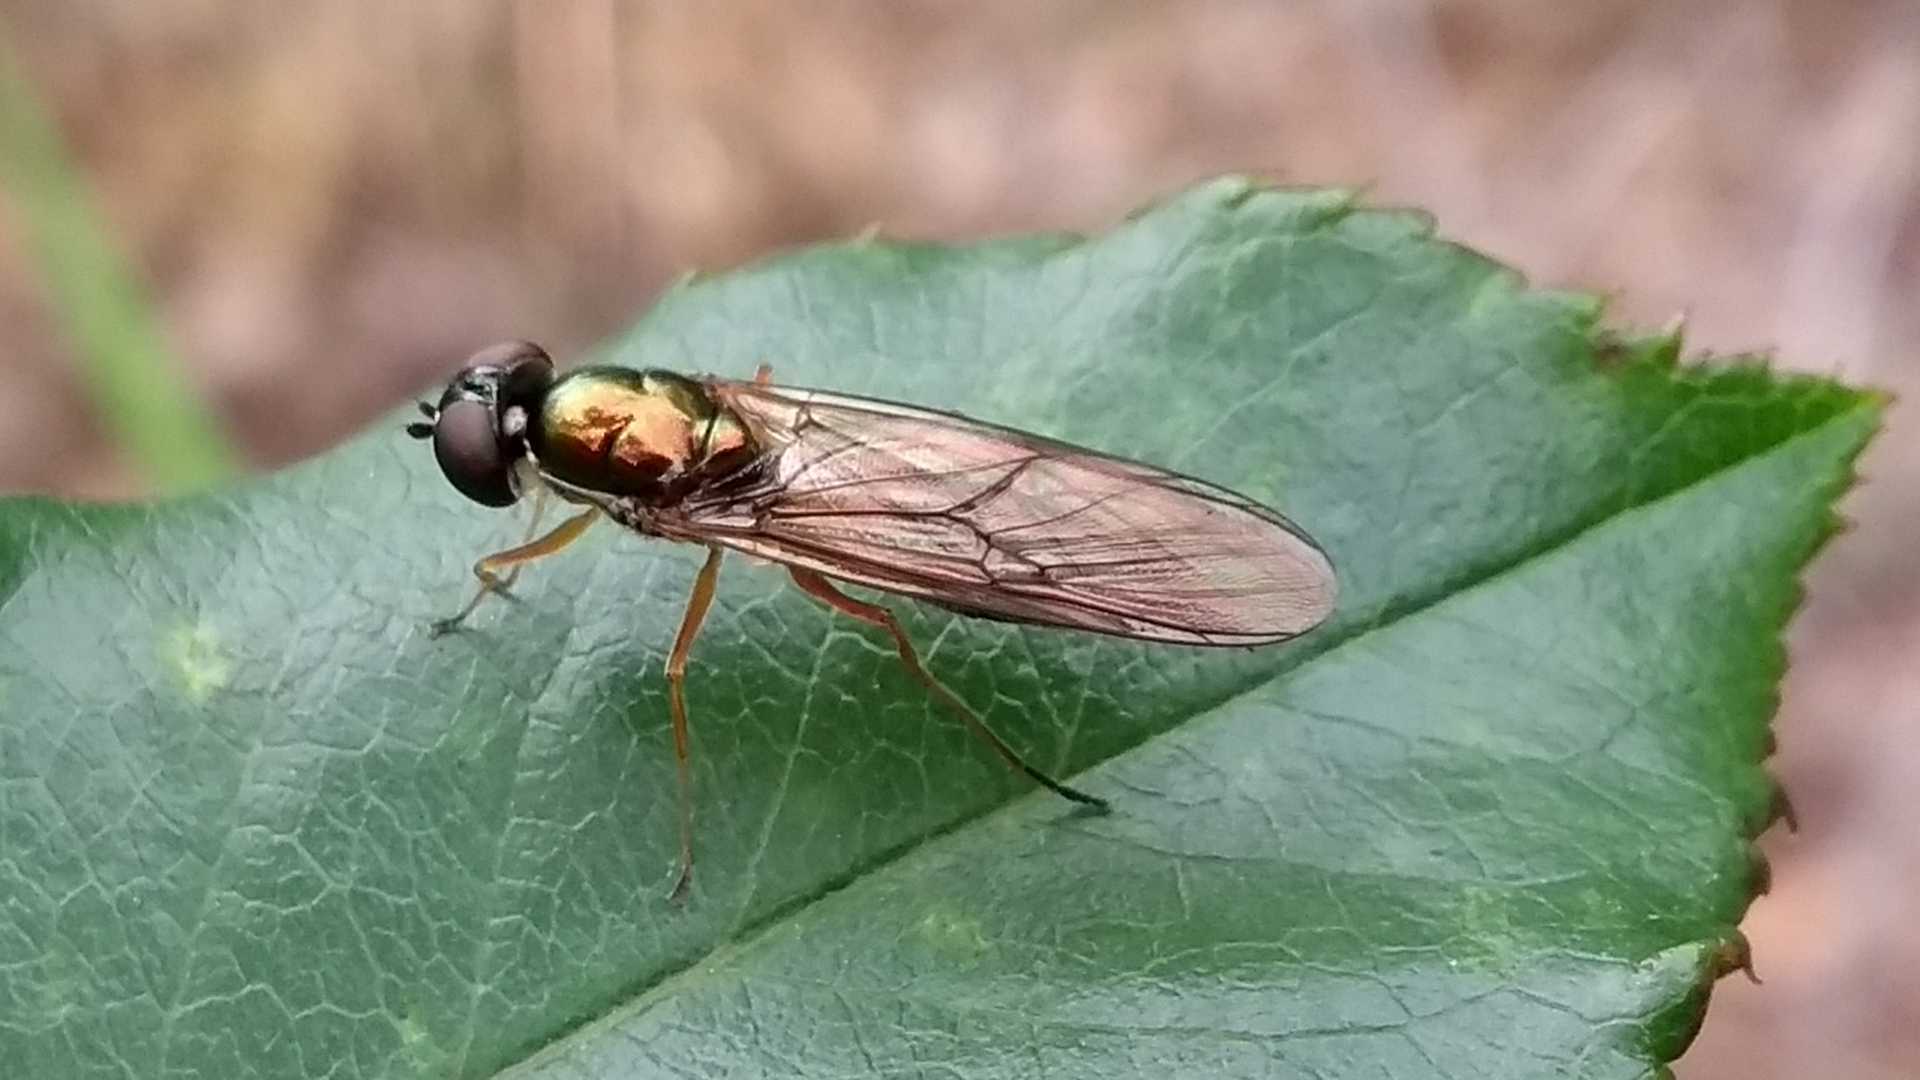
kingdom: Animalia
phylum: Arthropoda
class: Insecta
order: Diptera
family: Stratiomyidae
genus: Sargus
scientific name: Sargus bipunctatus
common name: Twin-spot centurion
